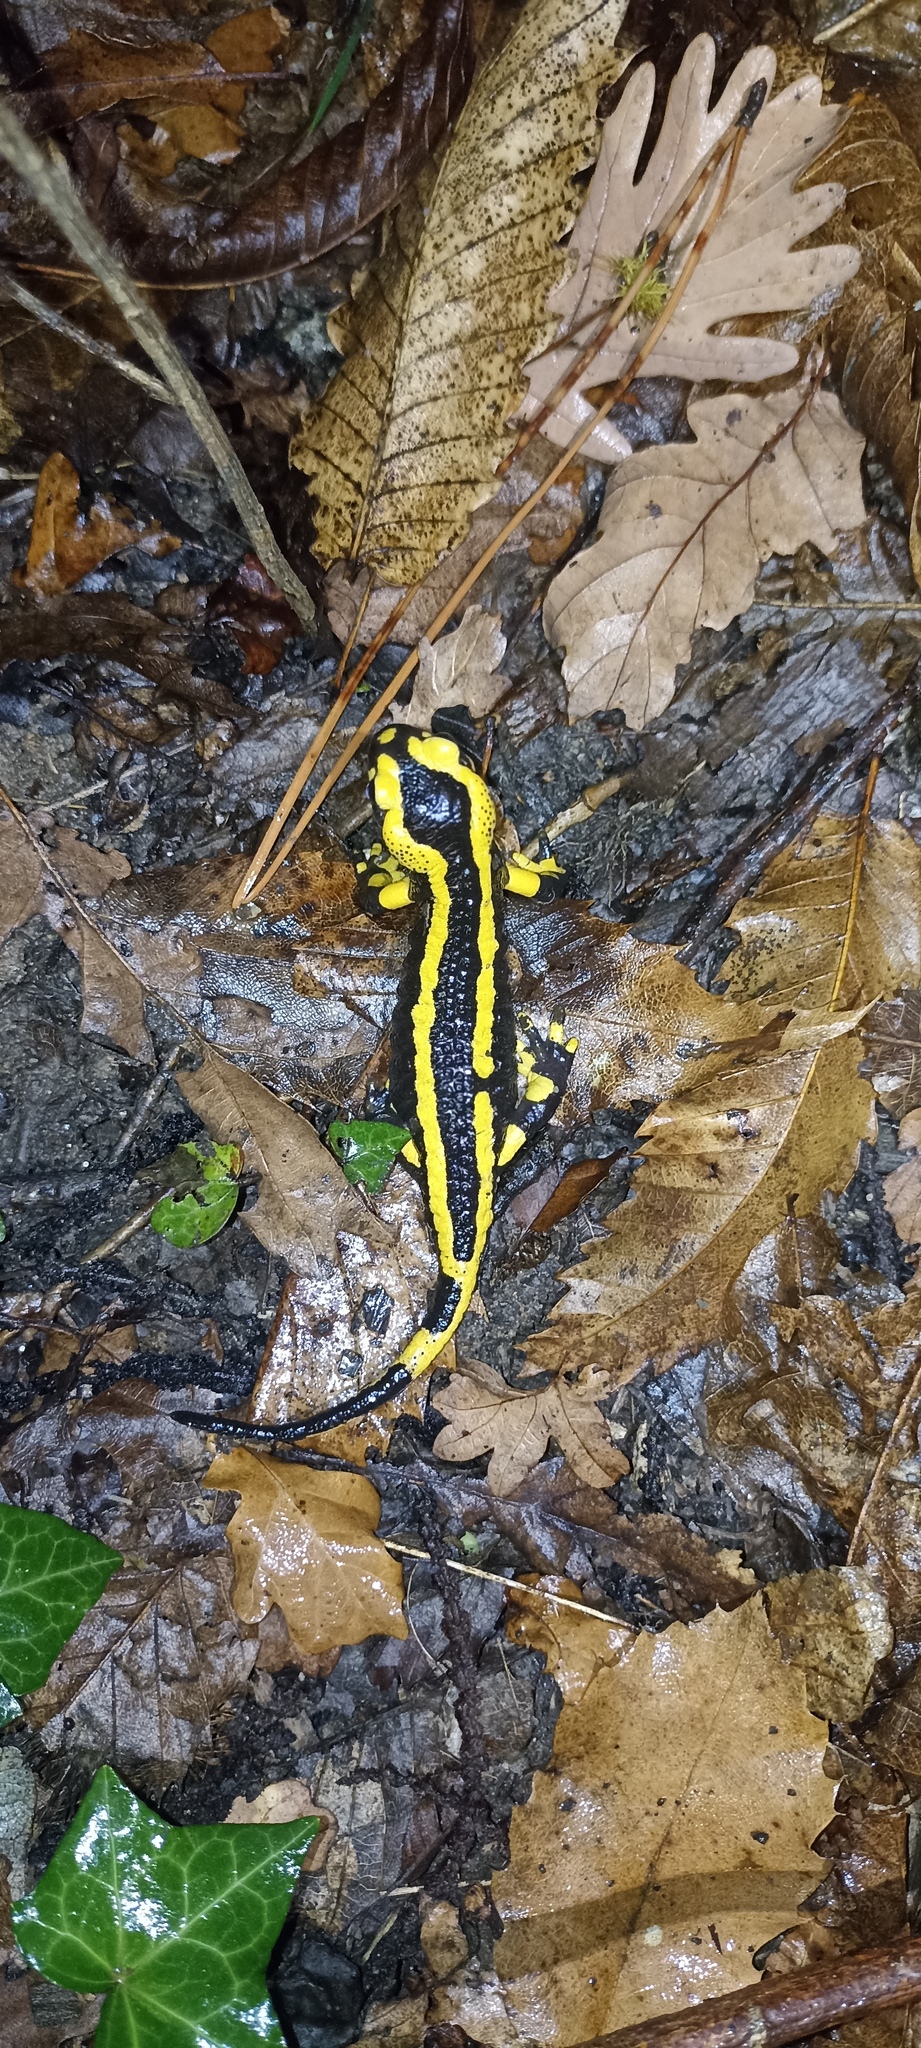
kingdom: Animalia
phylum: Chordata
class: Amphibia
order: Caudata
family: Salamandridae
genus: Salamandra
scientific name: Salamandra salamandra
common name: Fire salamander
